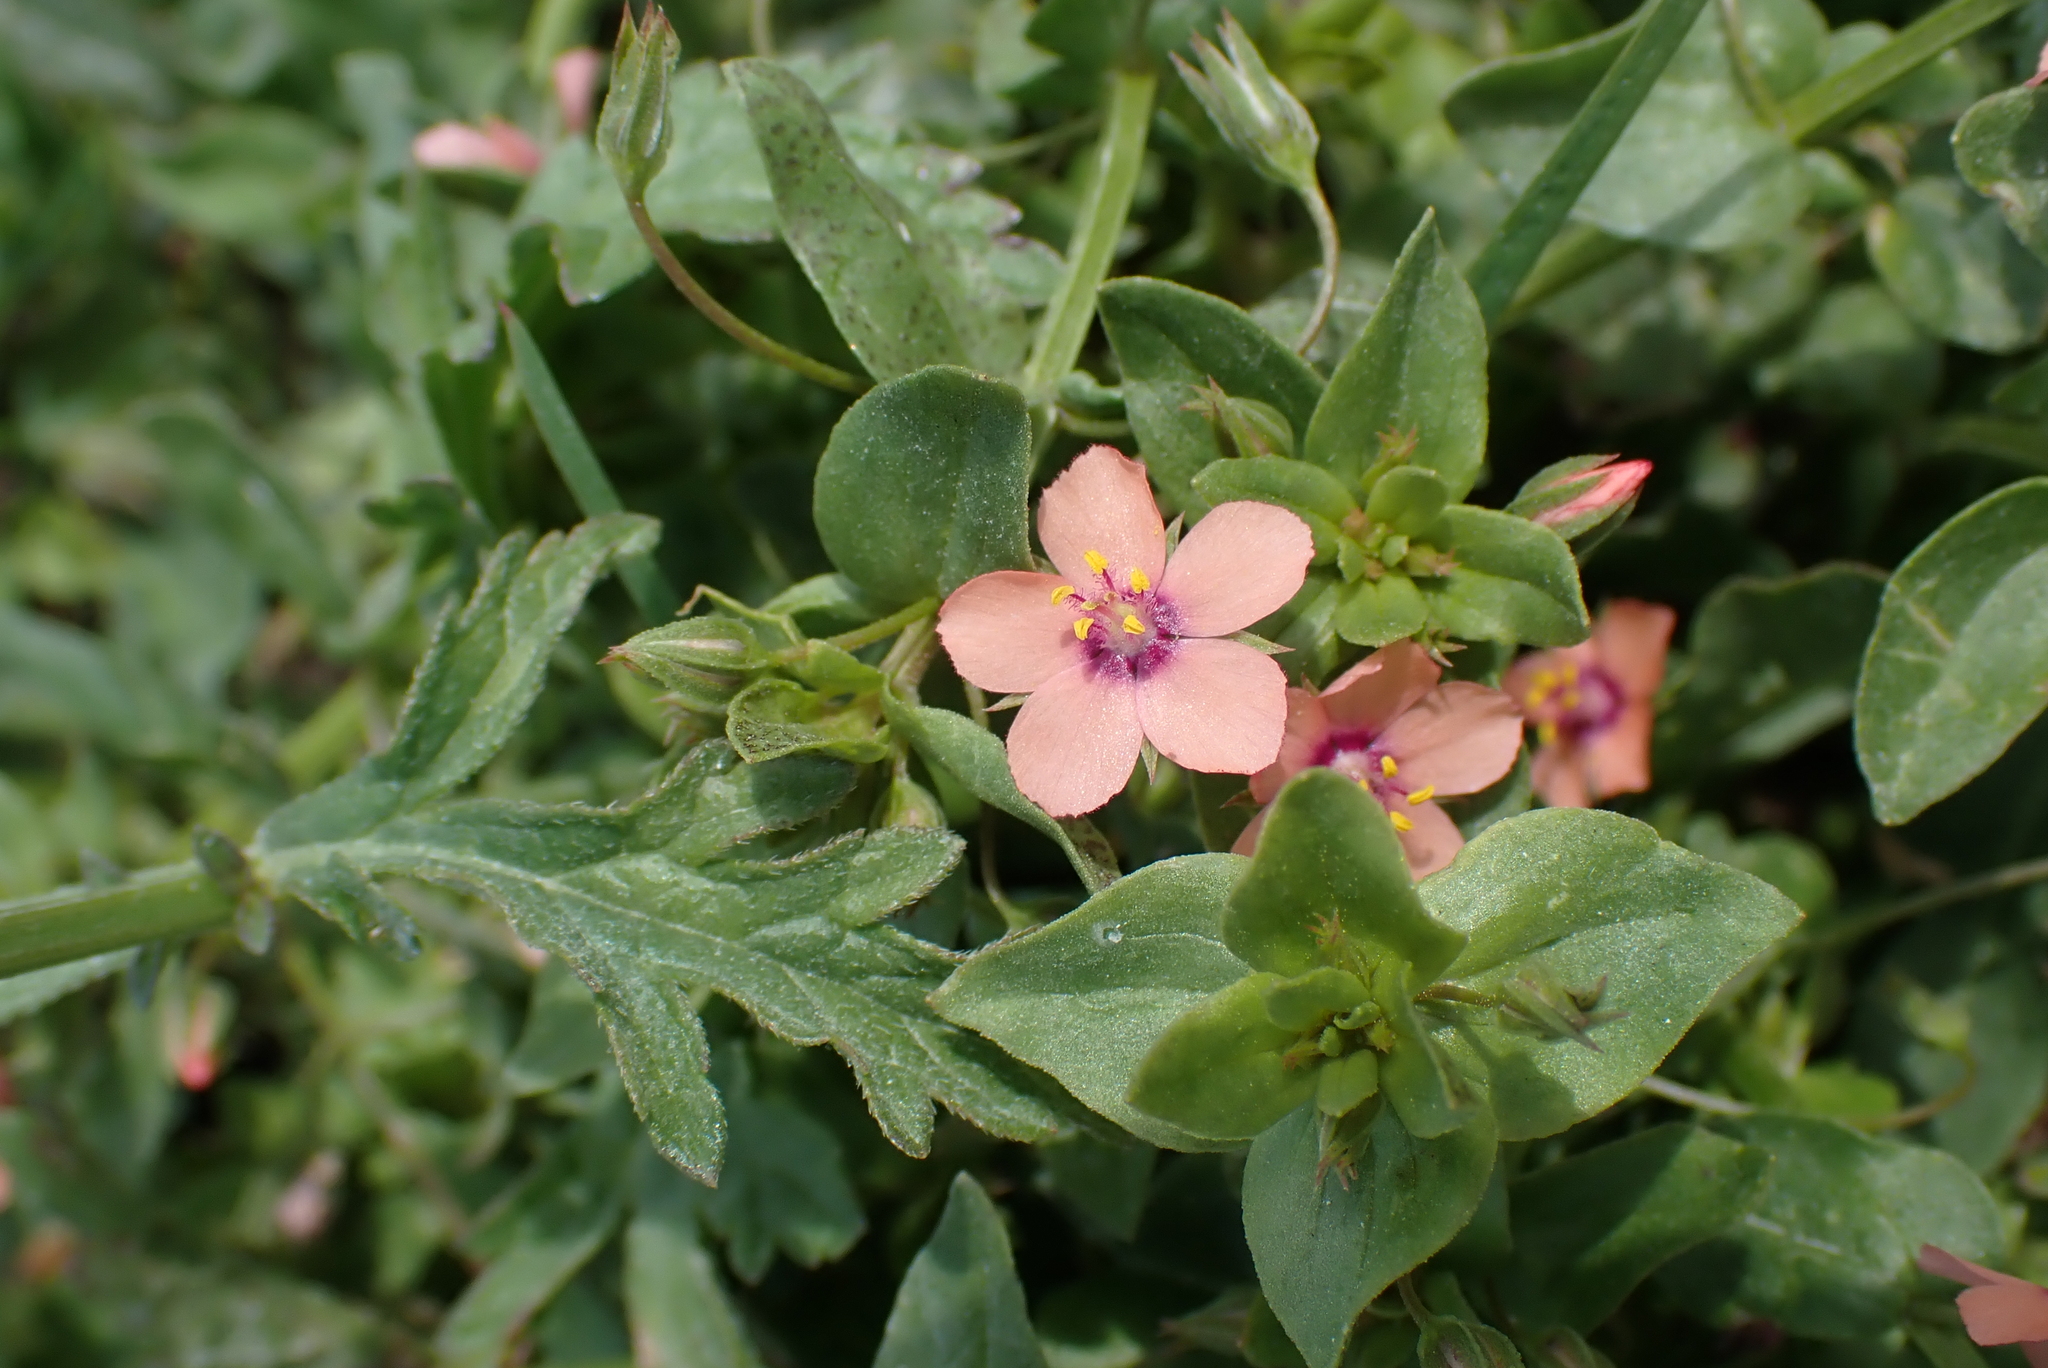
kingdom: Plantae
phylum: Tracheophyta
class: Magnoliopsida
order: Ericales
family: Primulaceae
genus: Lysimachia
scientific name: Lysimachia arvensis
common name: Scarlet pimpernel
